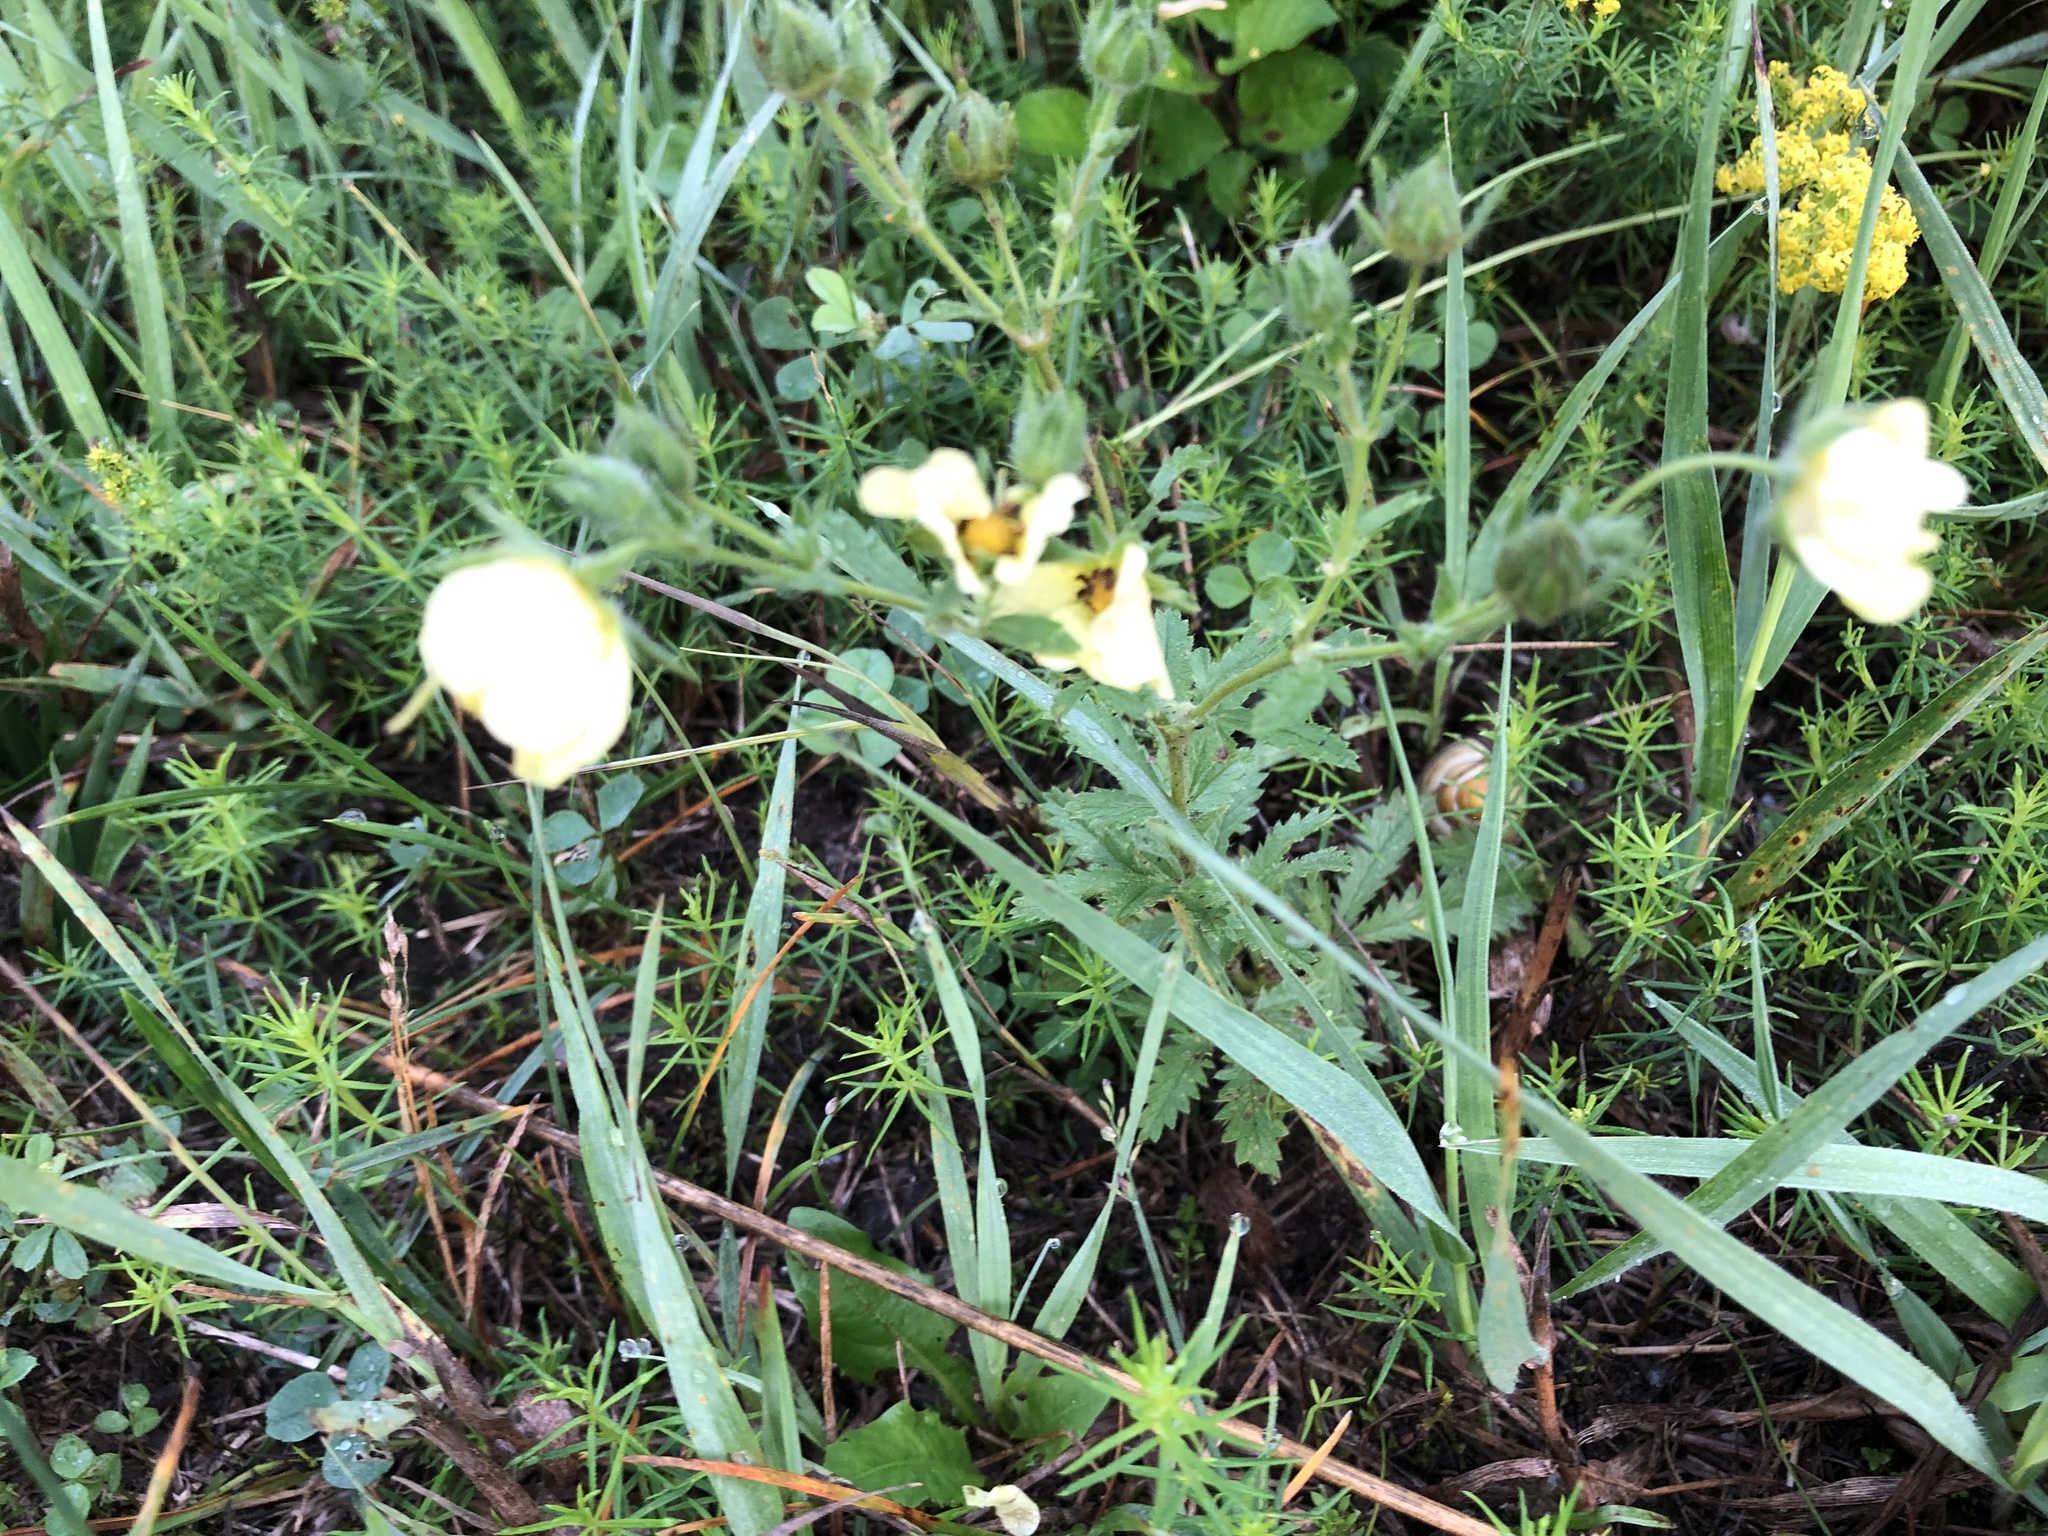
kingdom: Plantae
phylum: Tracheophyta
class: Magnoliopsida
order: Rosales
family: Rosaceae
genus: Potentilla
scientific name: Potentilla recta
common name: Sulphur cinquefoil
